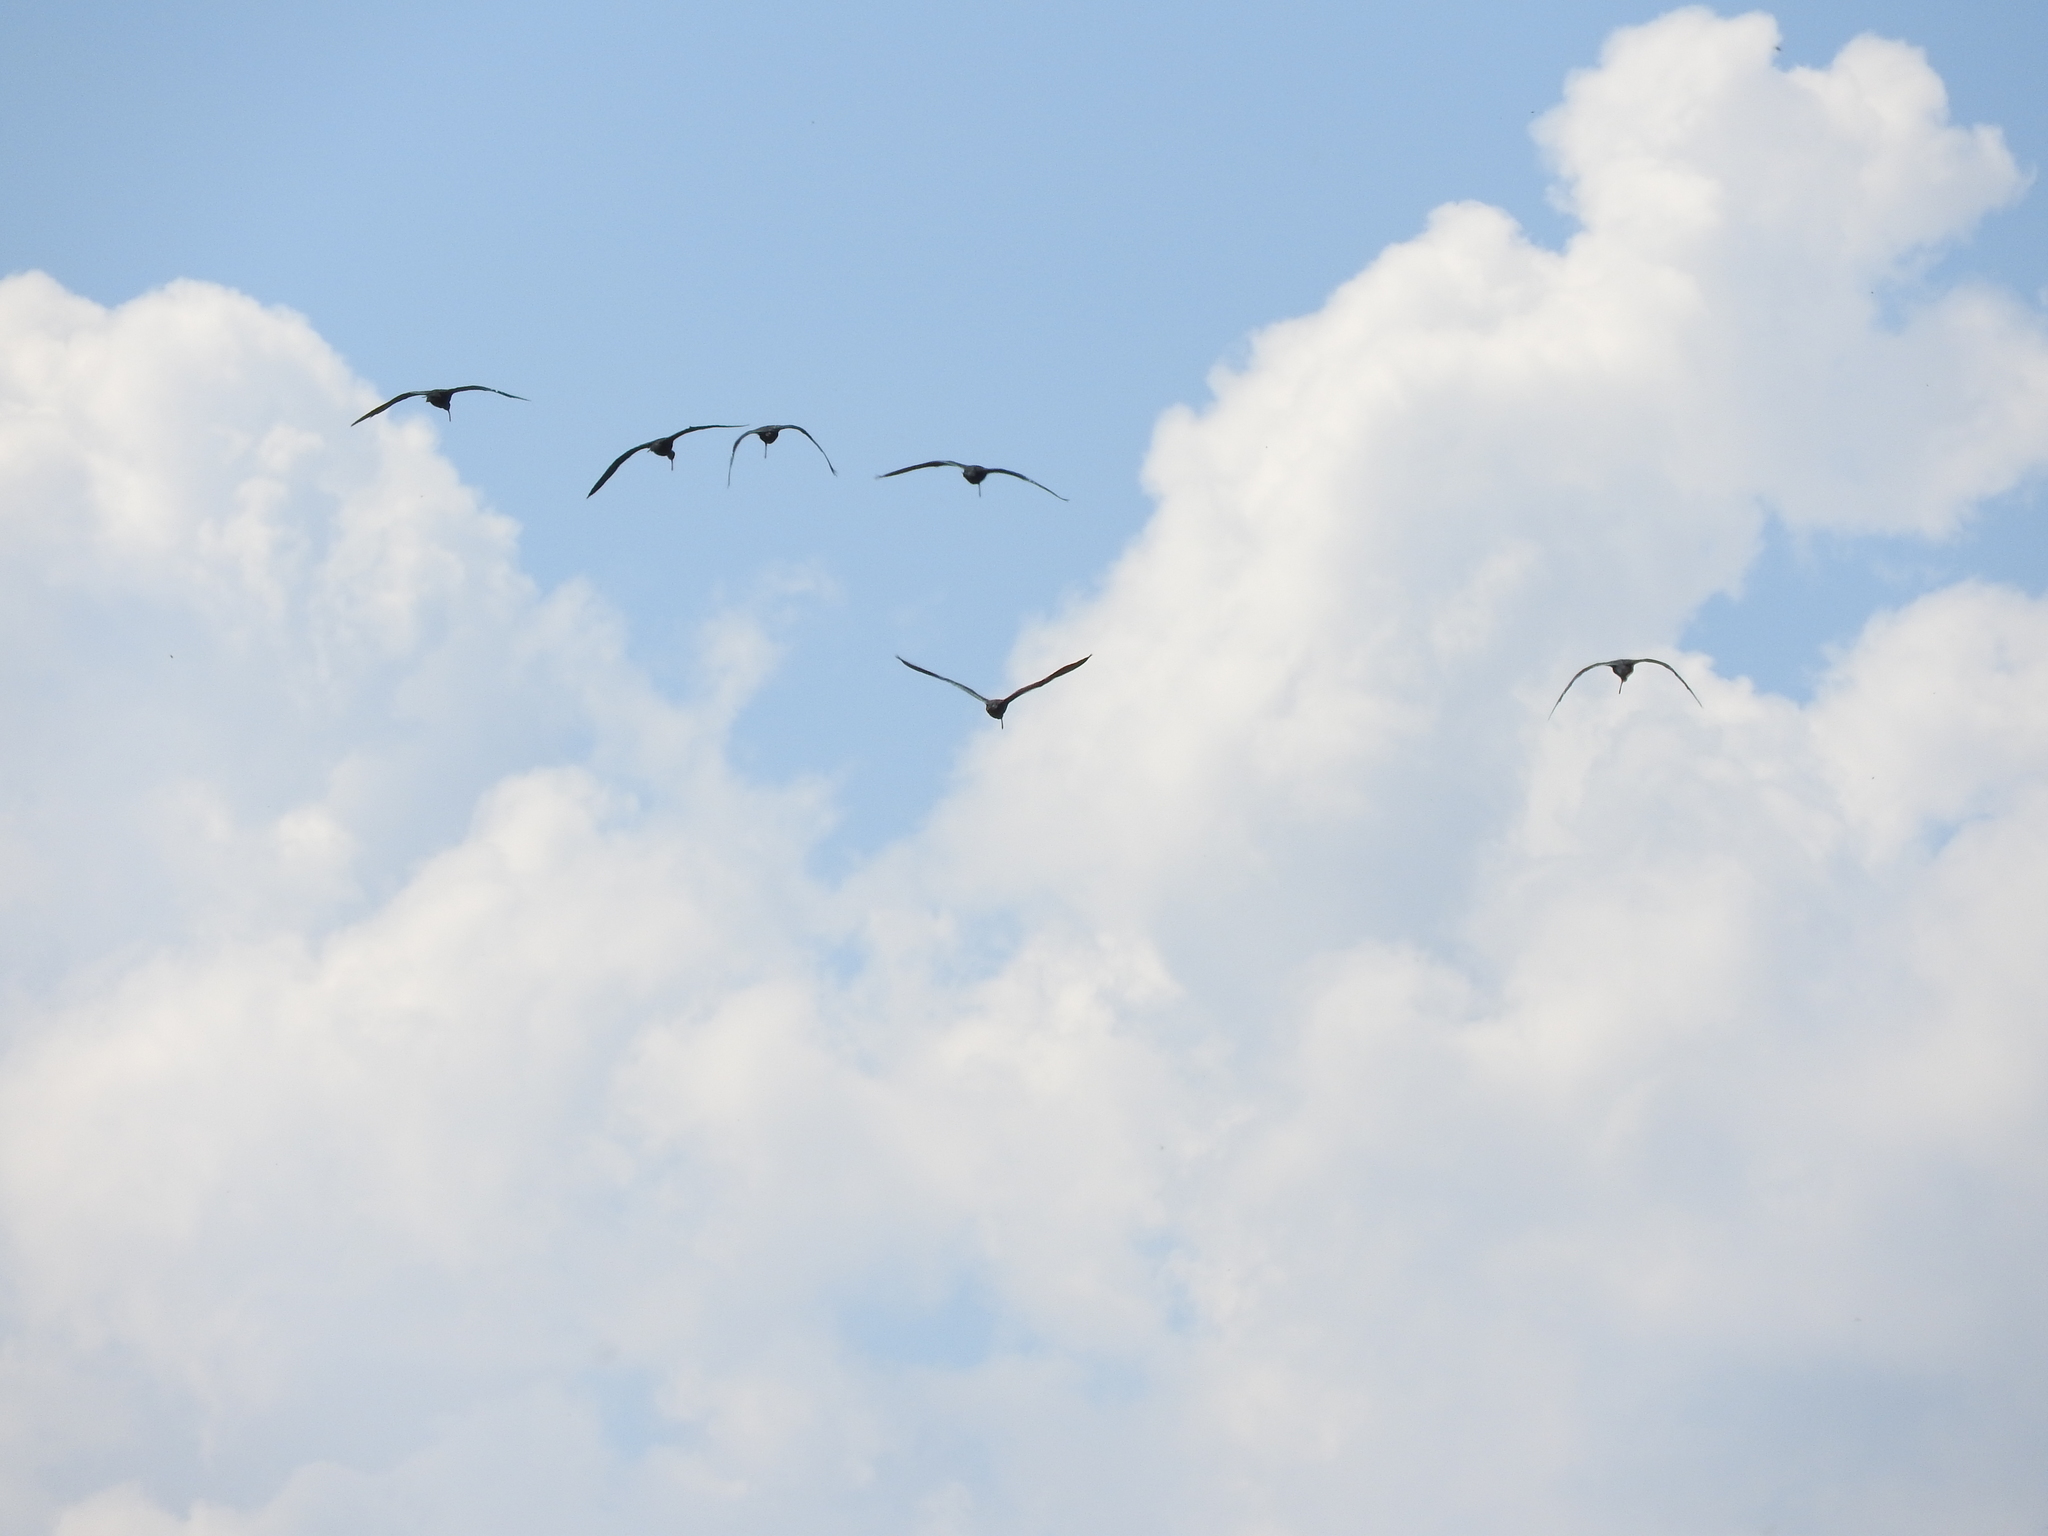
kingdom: Animalia
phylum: Chordata
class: Aves
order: Pelecaniformes
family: Threskiornithidae
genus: Plegadis
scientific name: Plegadis chihi
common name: White-faced ibis
